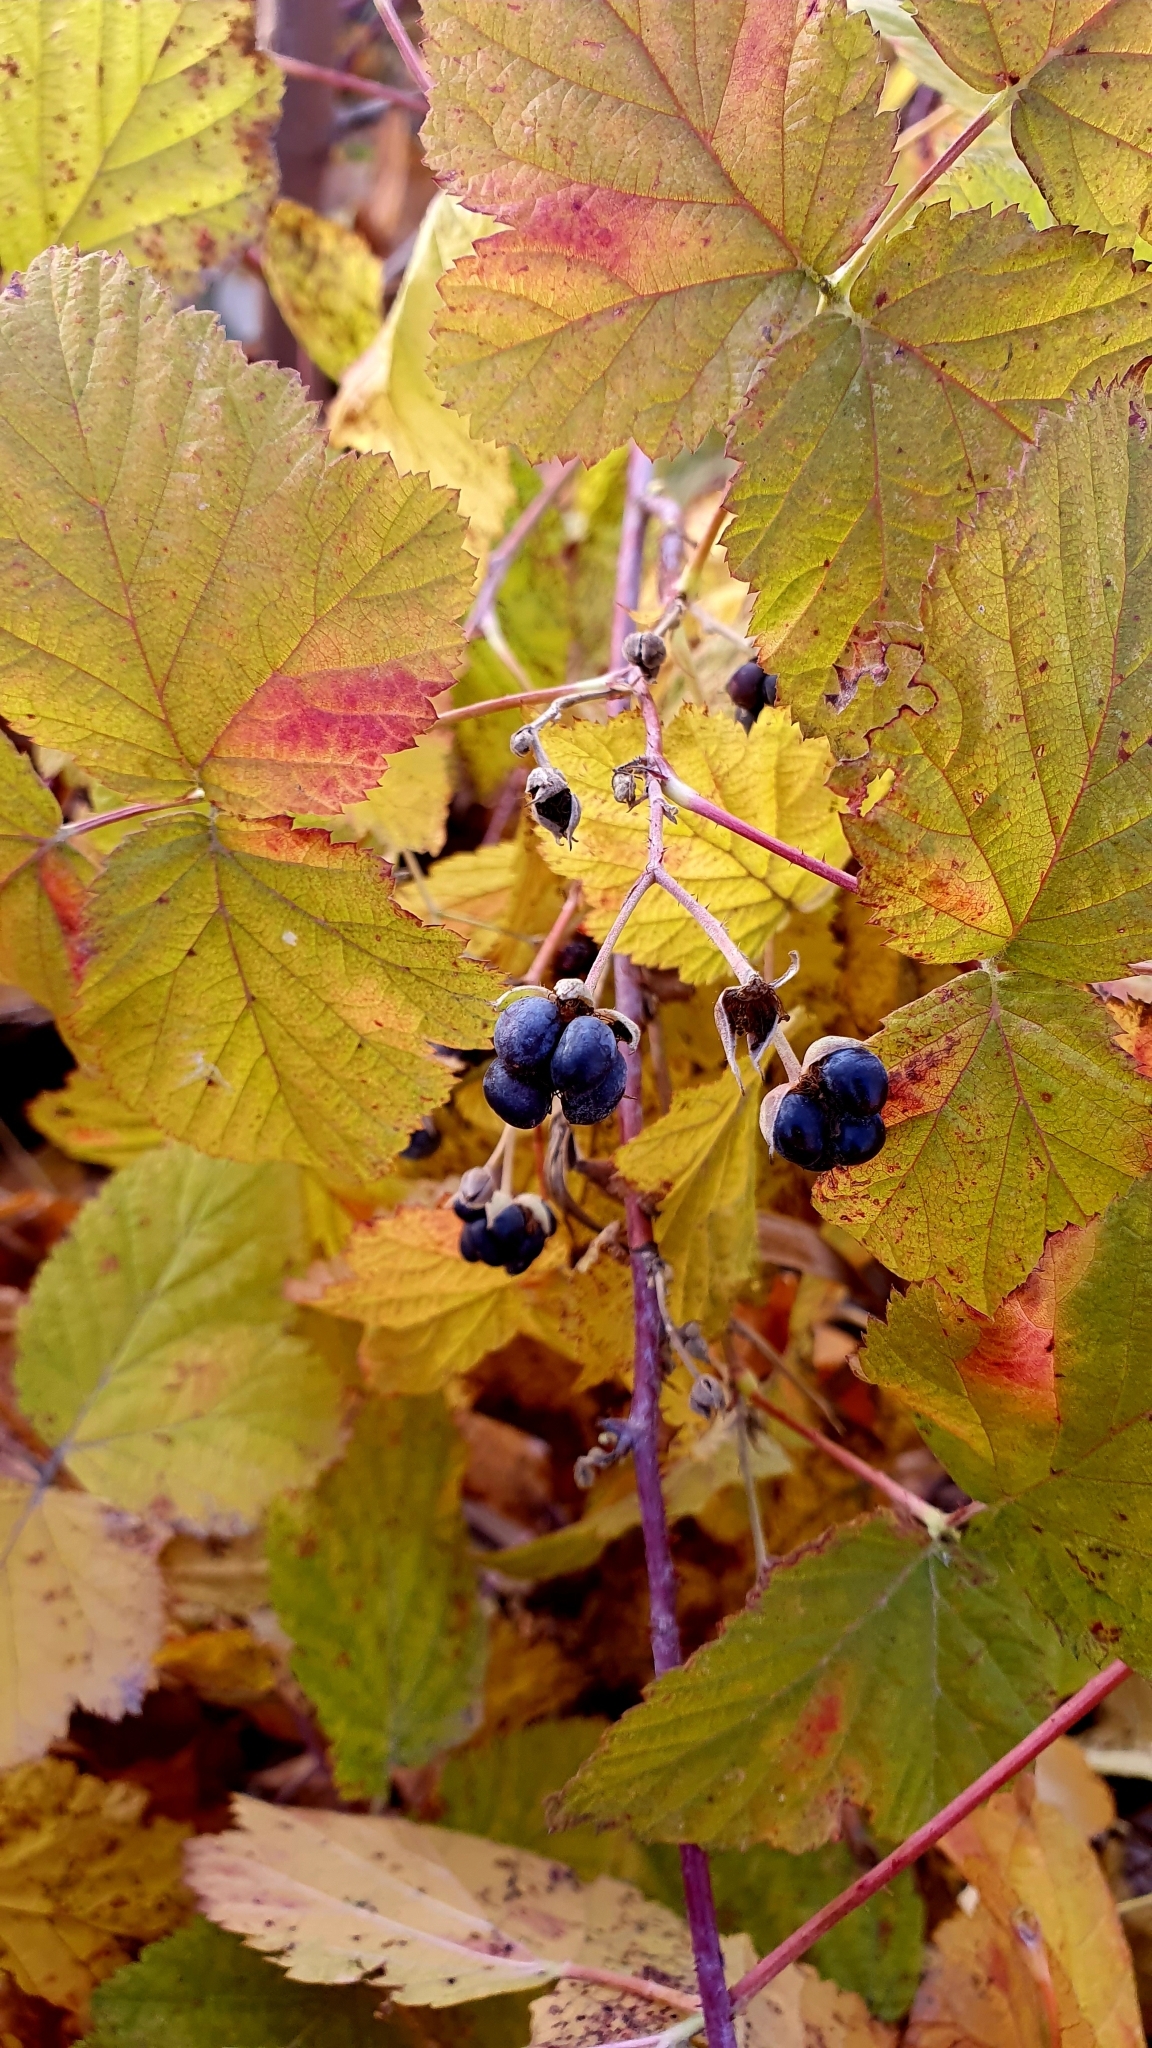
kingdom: Plantae
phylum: Tracheophyta
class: Magnoliopsida
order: Rosales
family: Rosaceae
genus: Rubus
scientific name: Rubus caesius
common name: Dewberry
